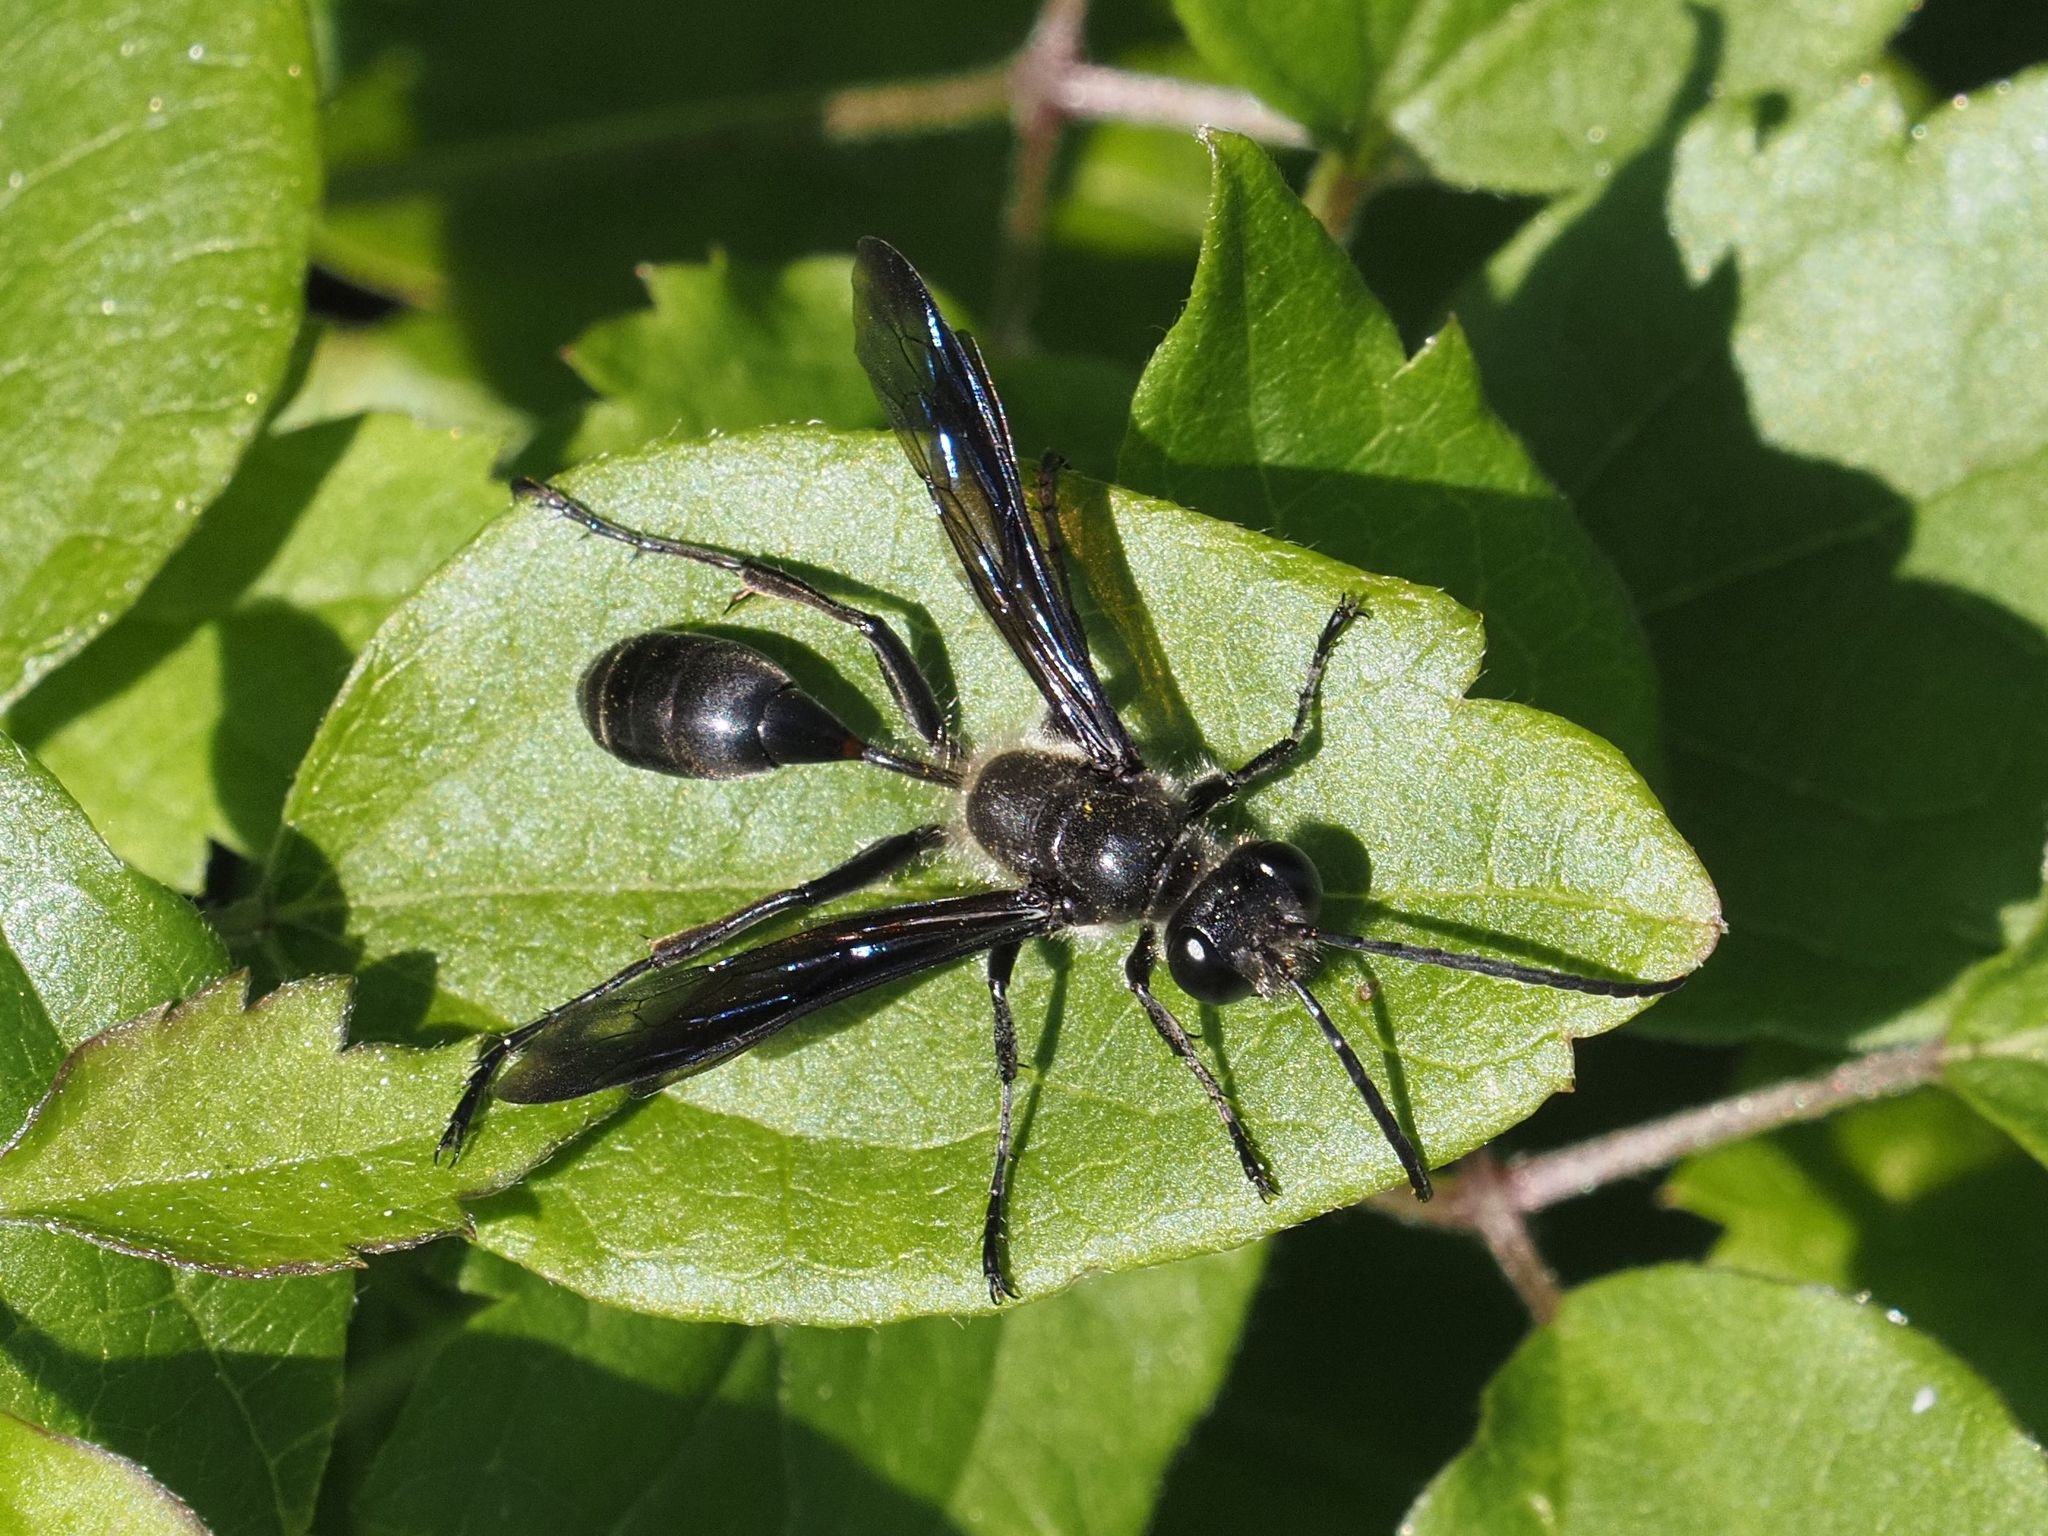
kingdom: Animalia
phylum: Arthropoda
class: Insecta
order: Hymenoptera
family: Sphecidae
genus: Isodontia
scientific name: Isodontia mexicana
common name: Mud dauber
